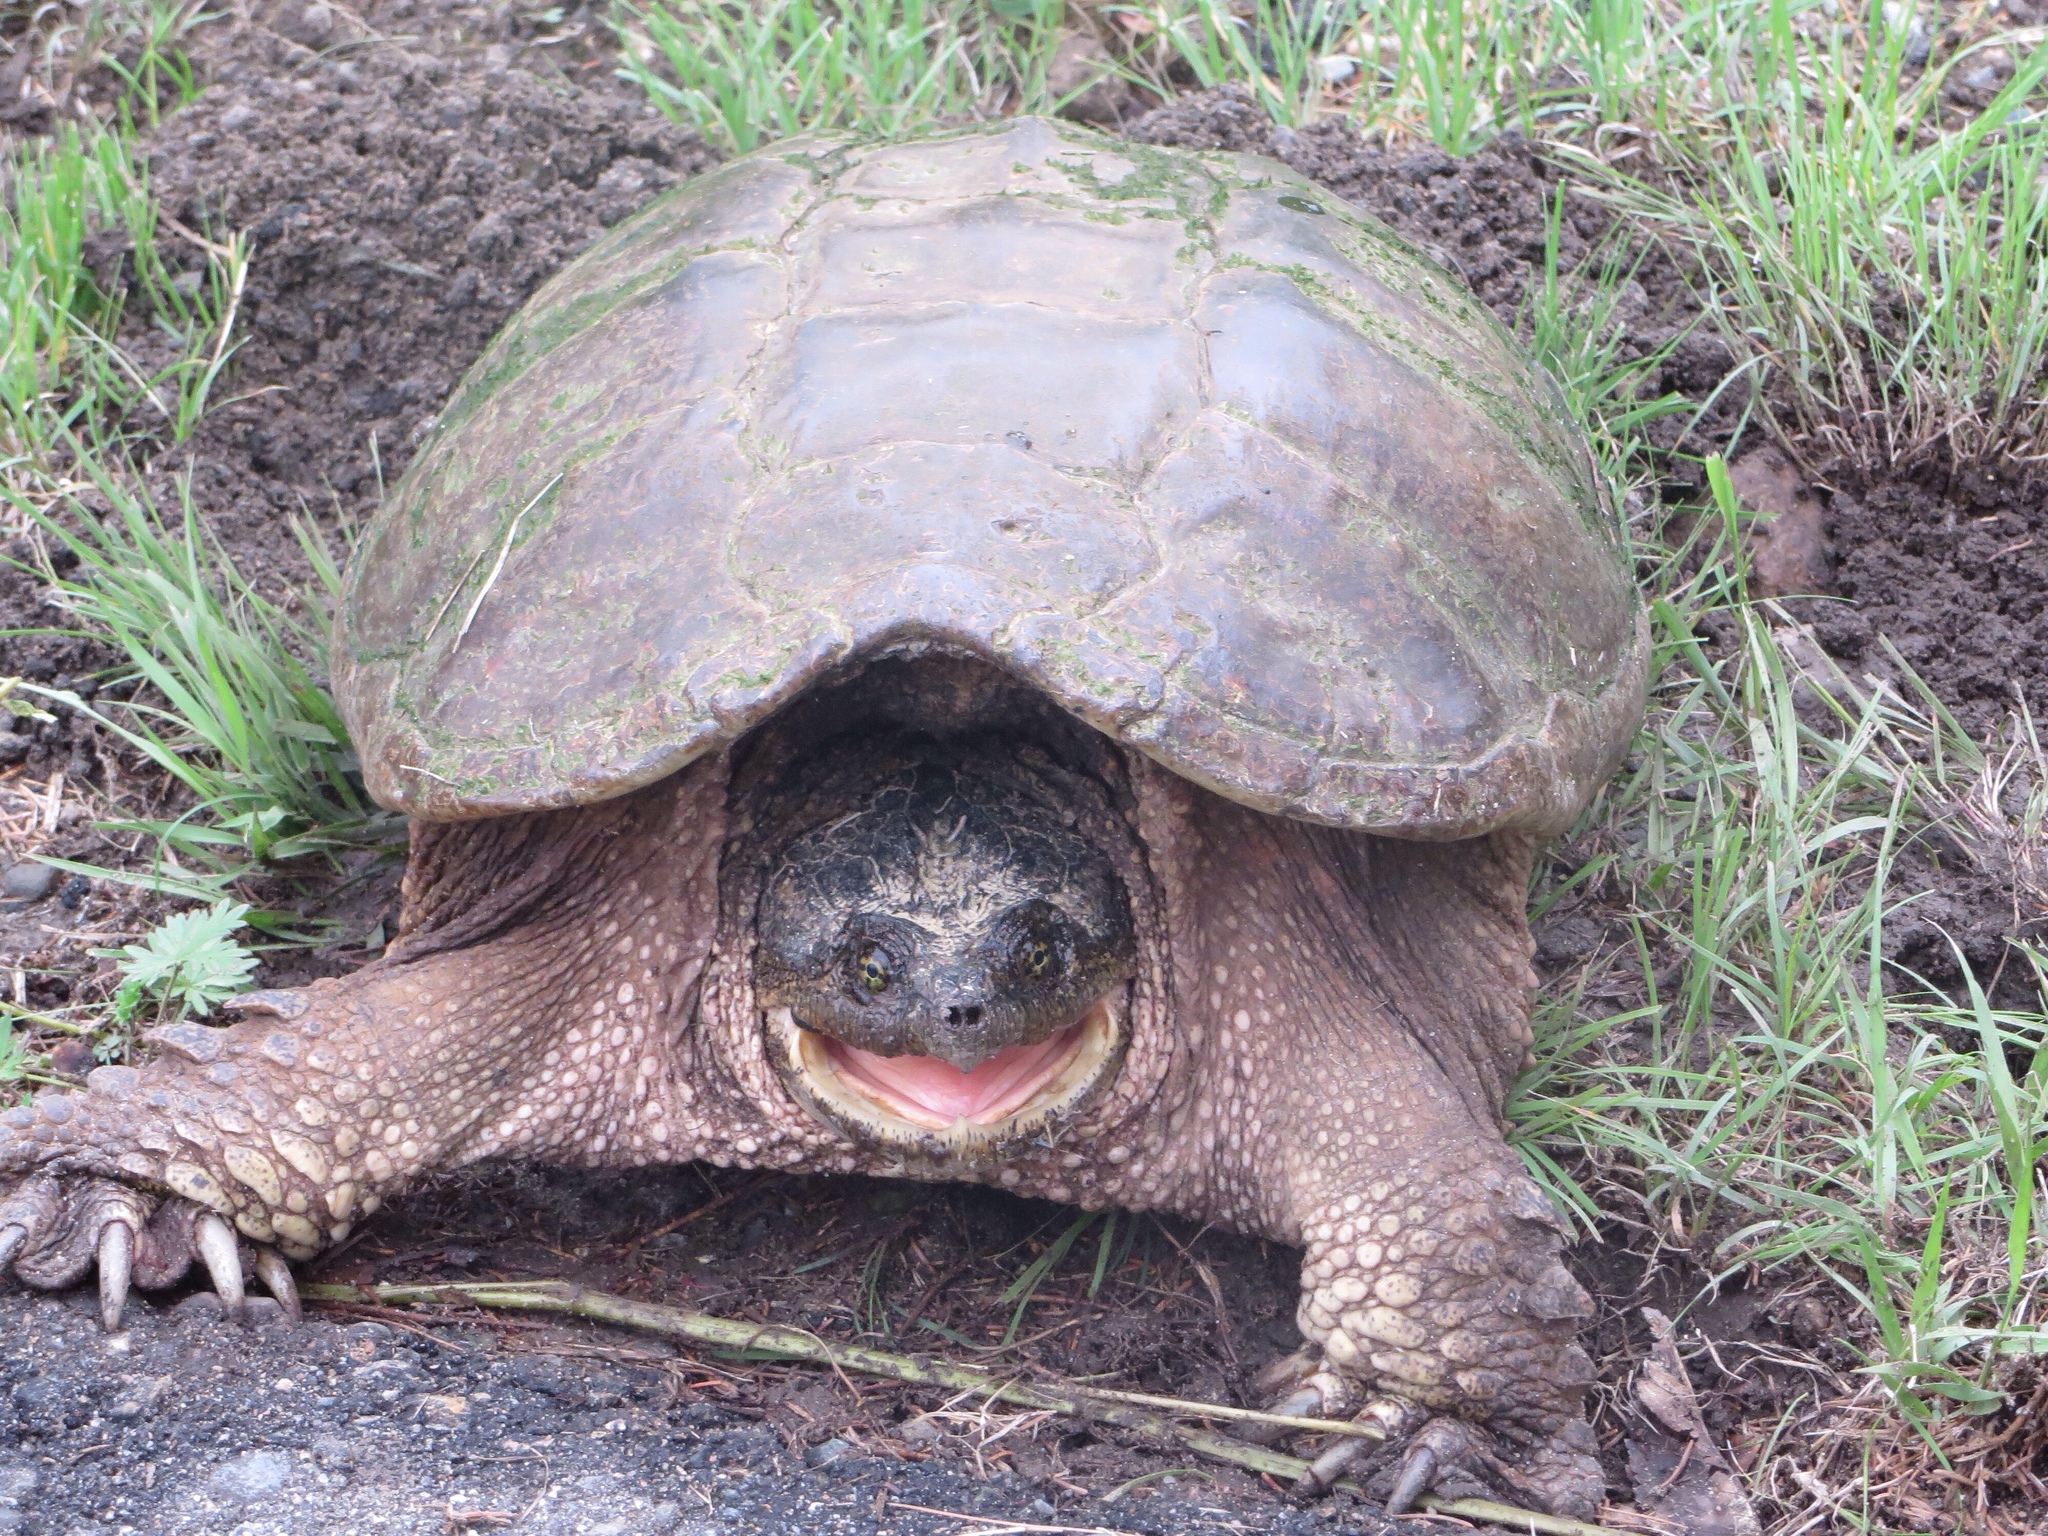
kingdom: Animalia
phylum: Chordata
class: Testudines
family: Chelydridae
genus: Chelydra
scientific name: Chelydra serpentina
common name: Common snapping turtle
